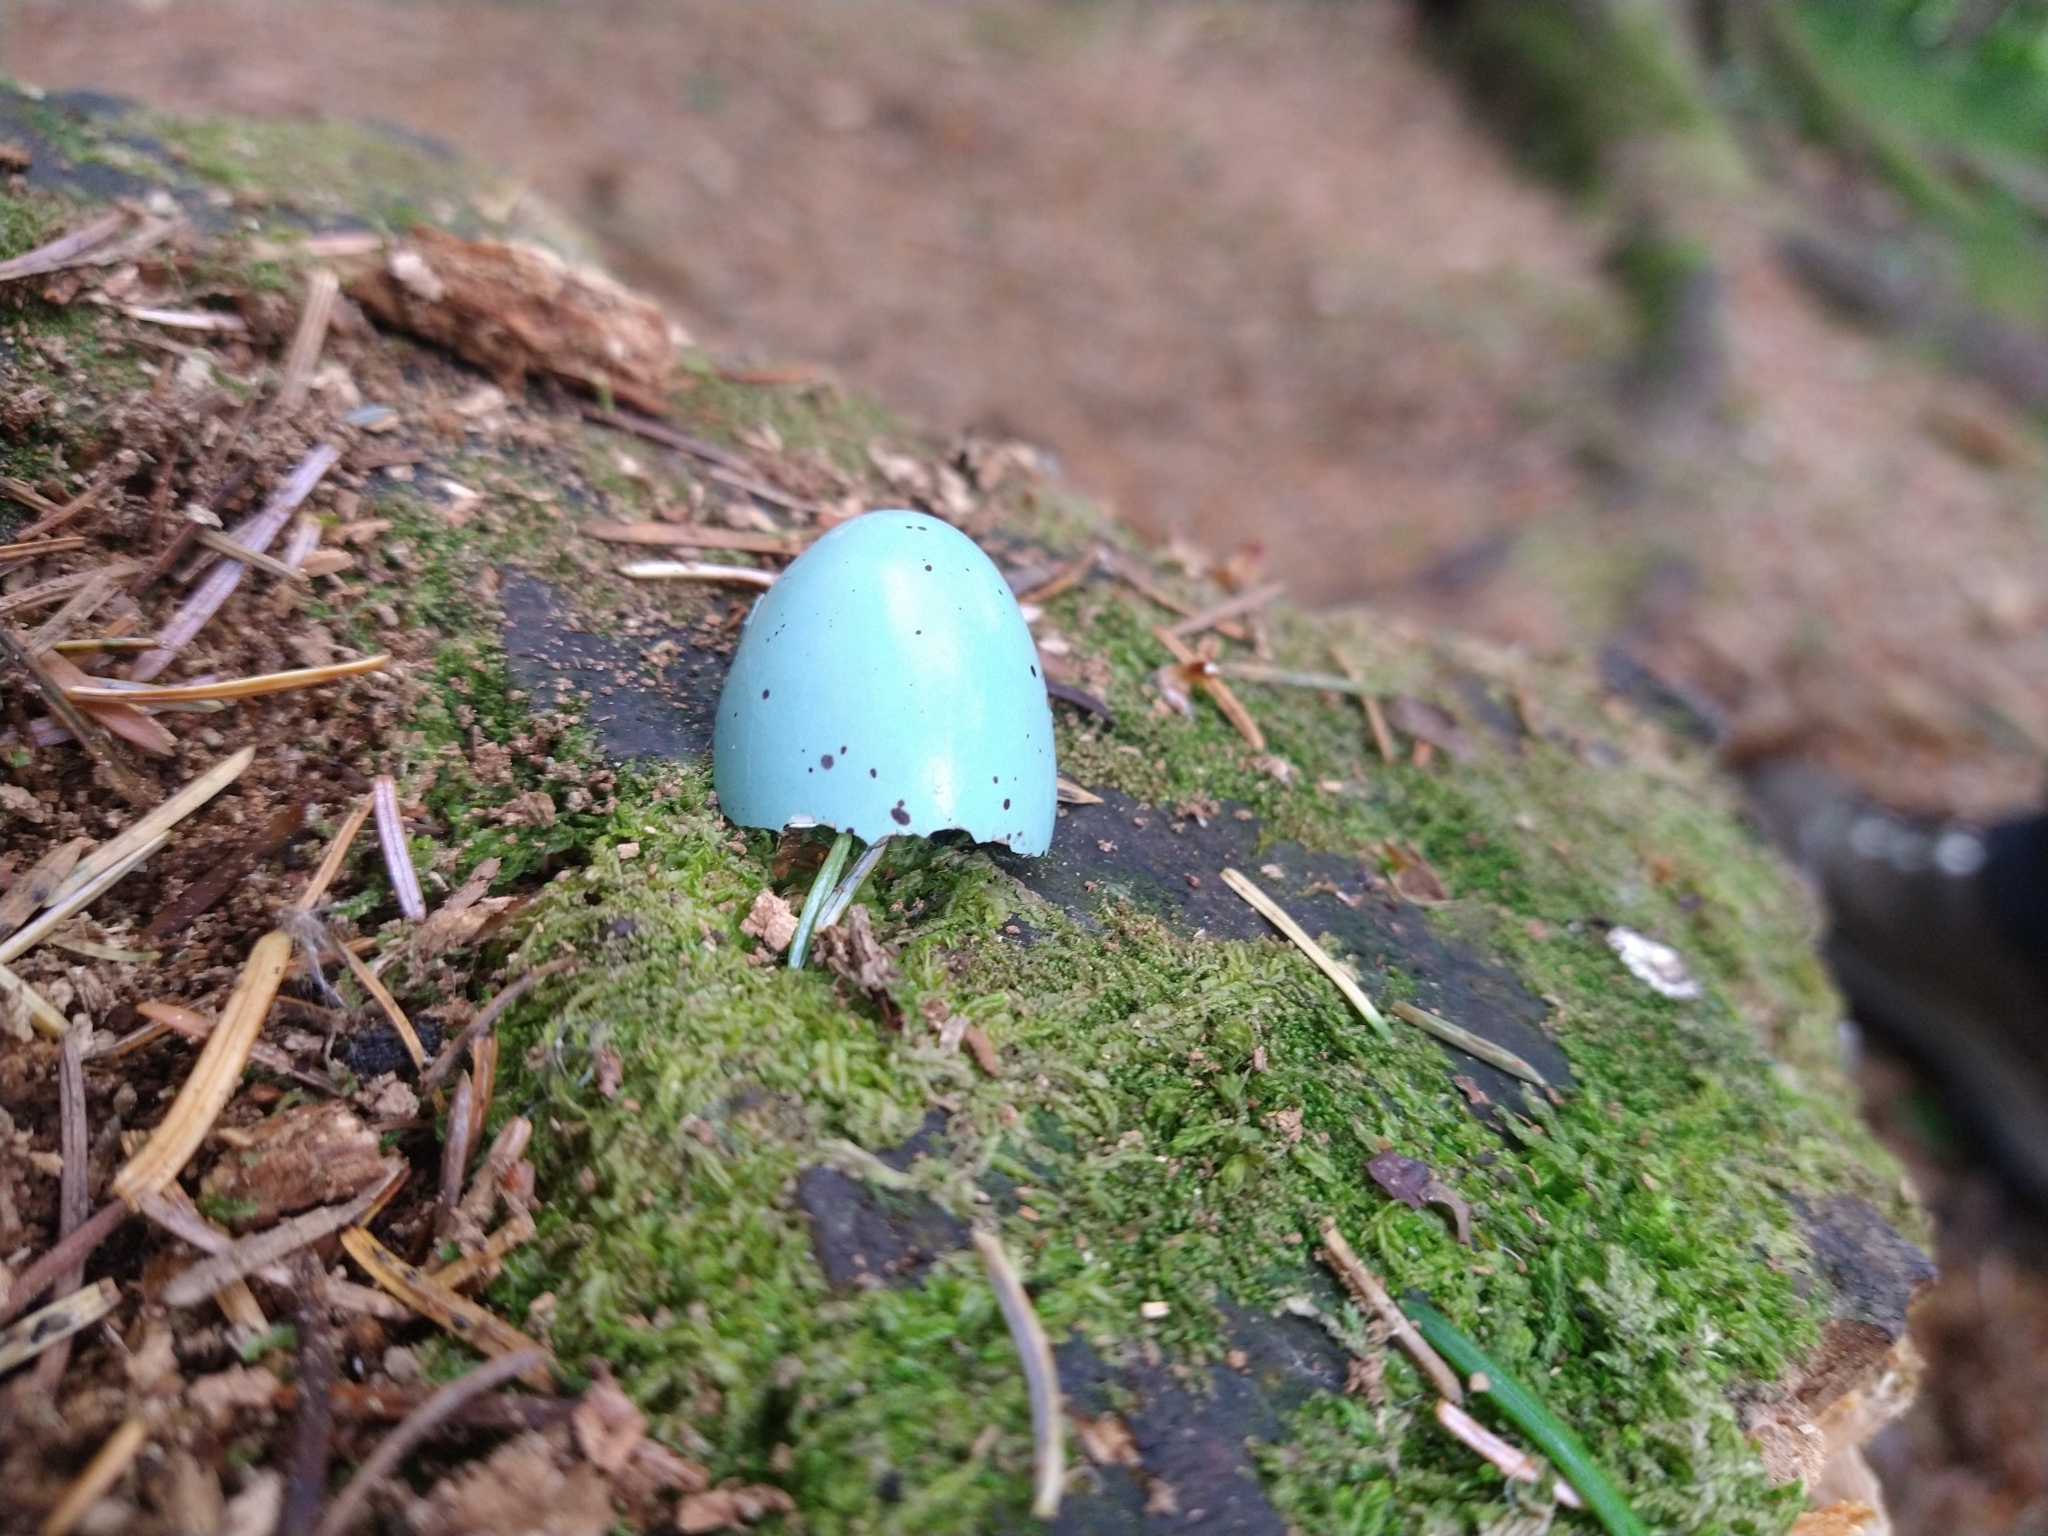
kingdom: Animalia
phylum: Chordata
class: Aves
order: Passeriformes
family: Turdidae
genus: Turdus
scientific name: Turdus philomelos
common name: Song thrush
